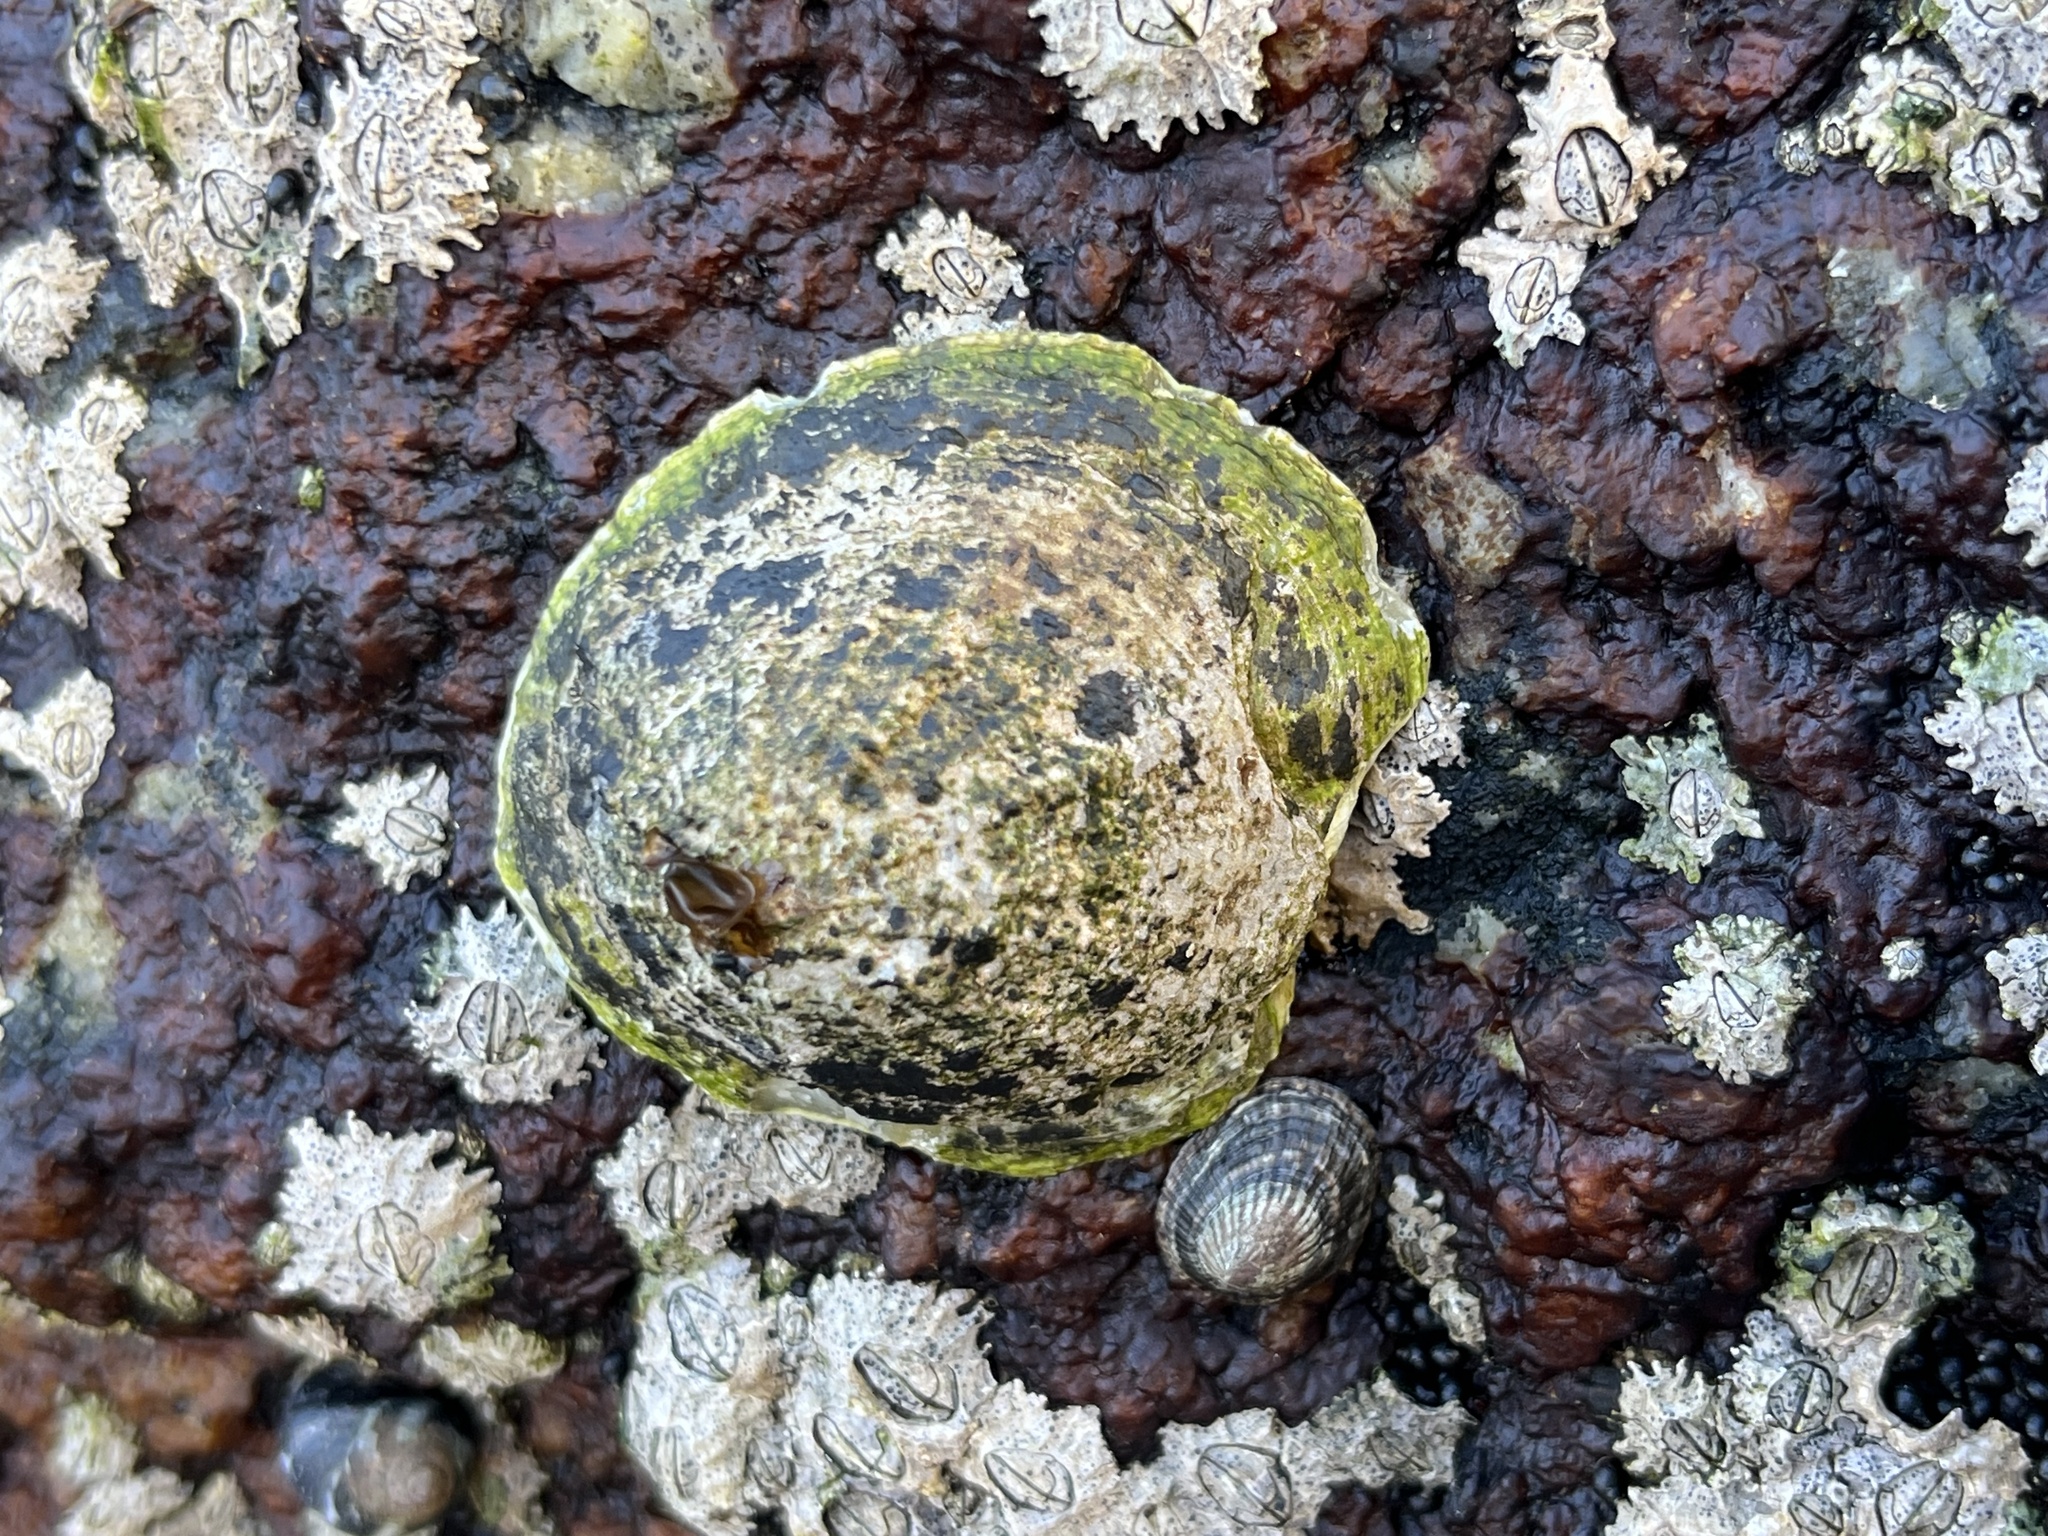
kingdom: Animalia
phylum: Mollusca
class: Gastropoda
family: Lottiidae
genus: Scurria
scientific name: Scurria viridula
